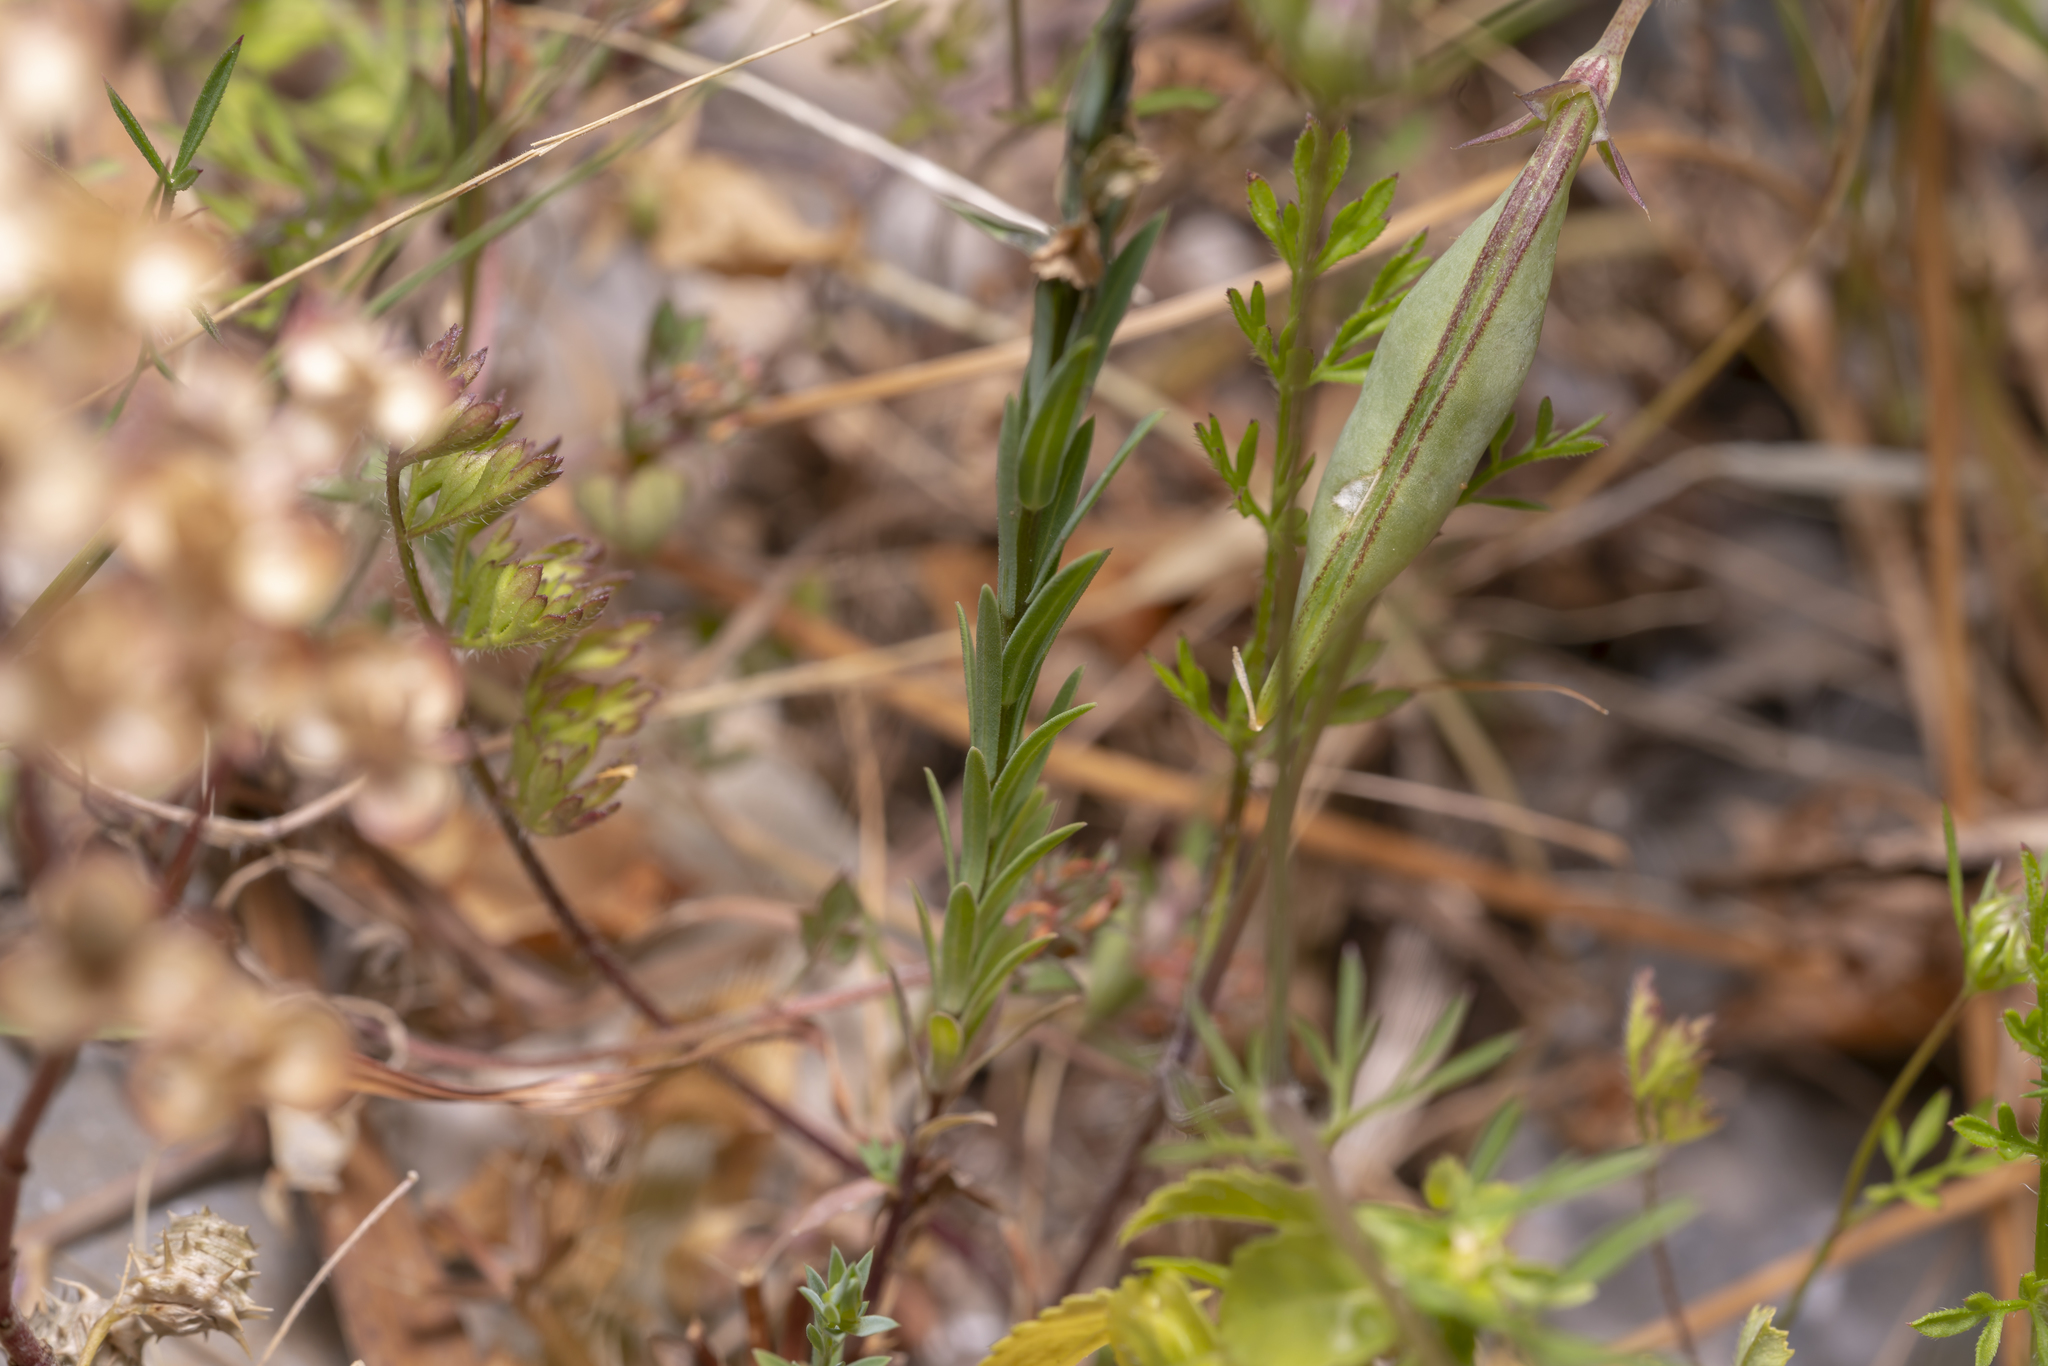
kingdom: Plantae
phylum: Tracheophyta
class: Magnoliopsida
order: Malpighiales
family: Linaceae
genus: Linum
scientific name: Linum strictum
